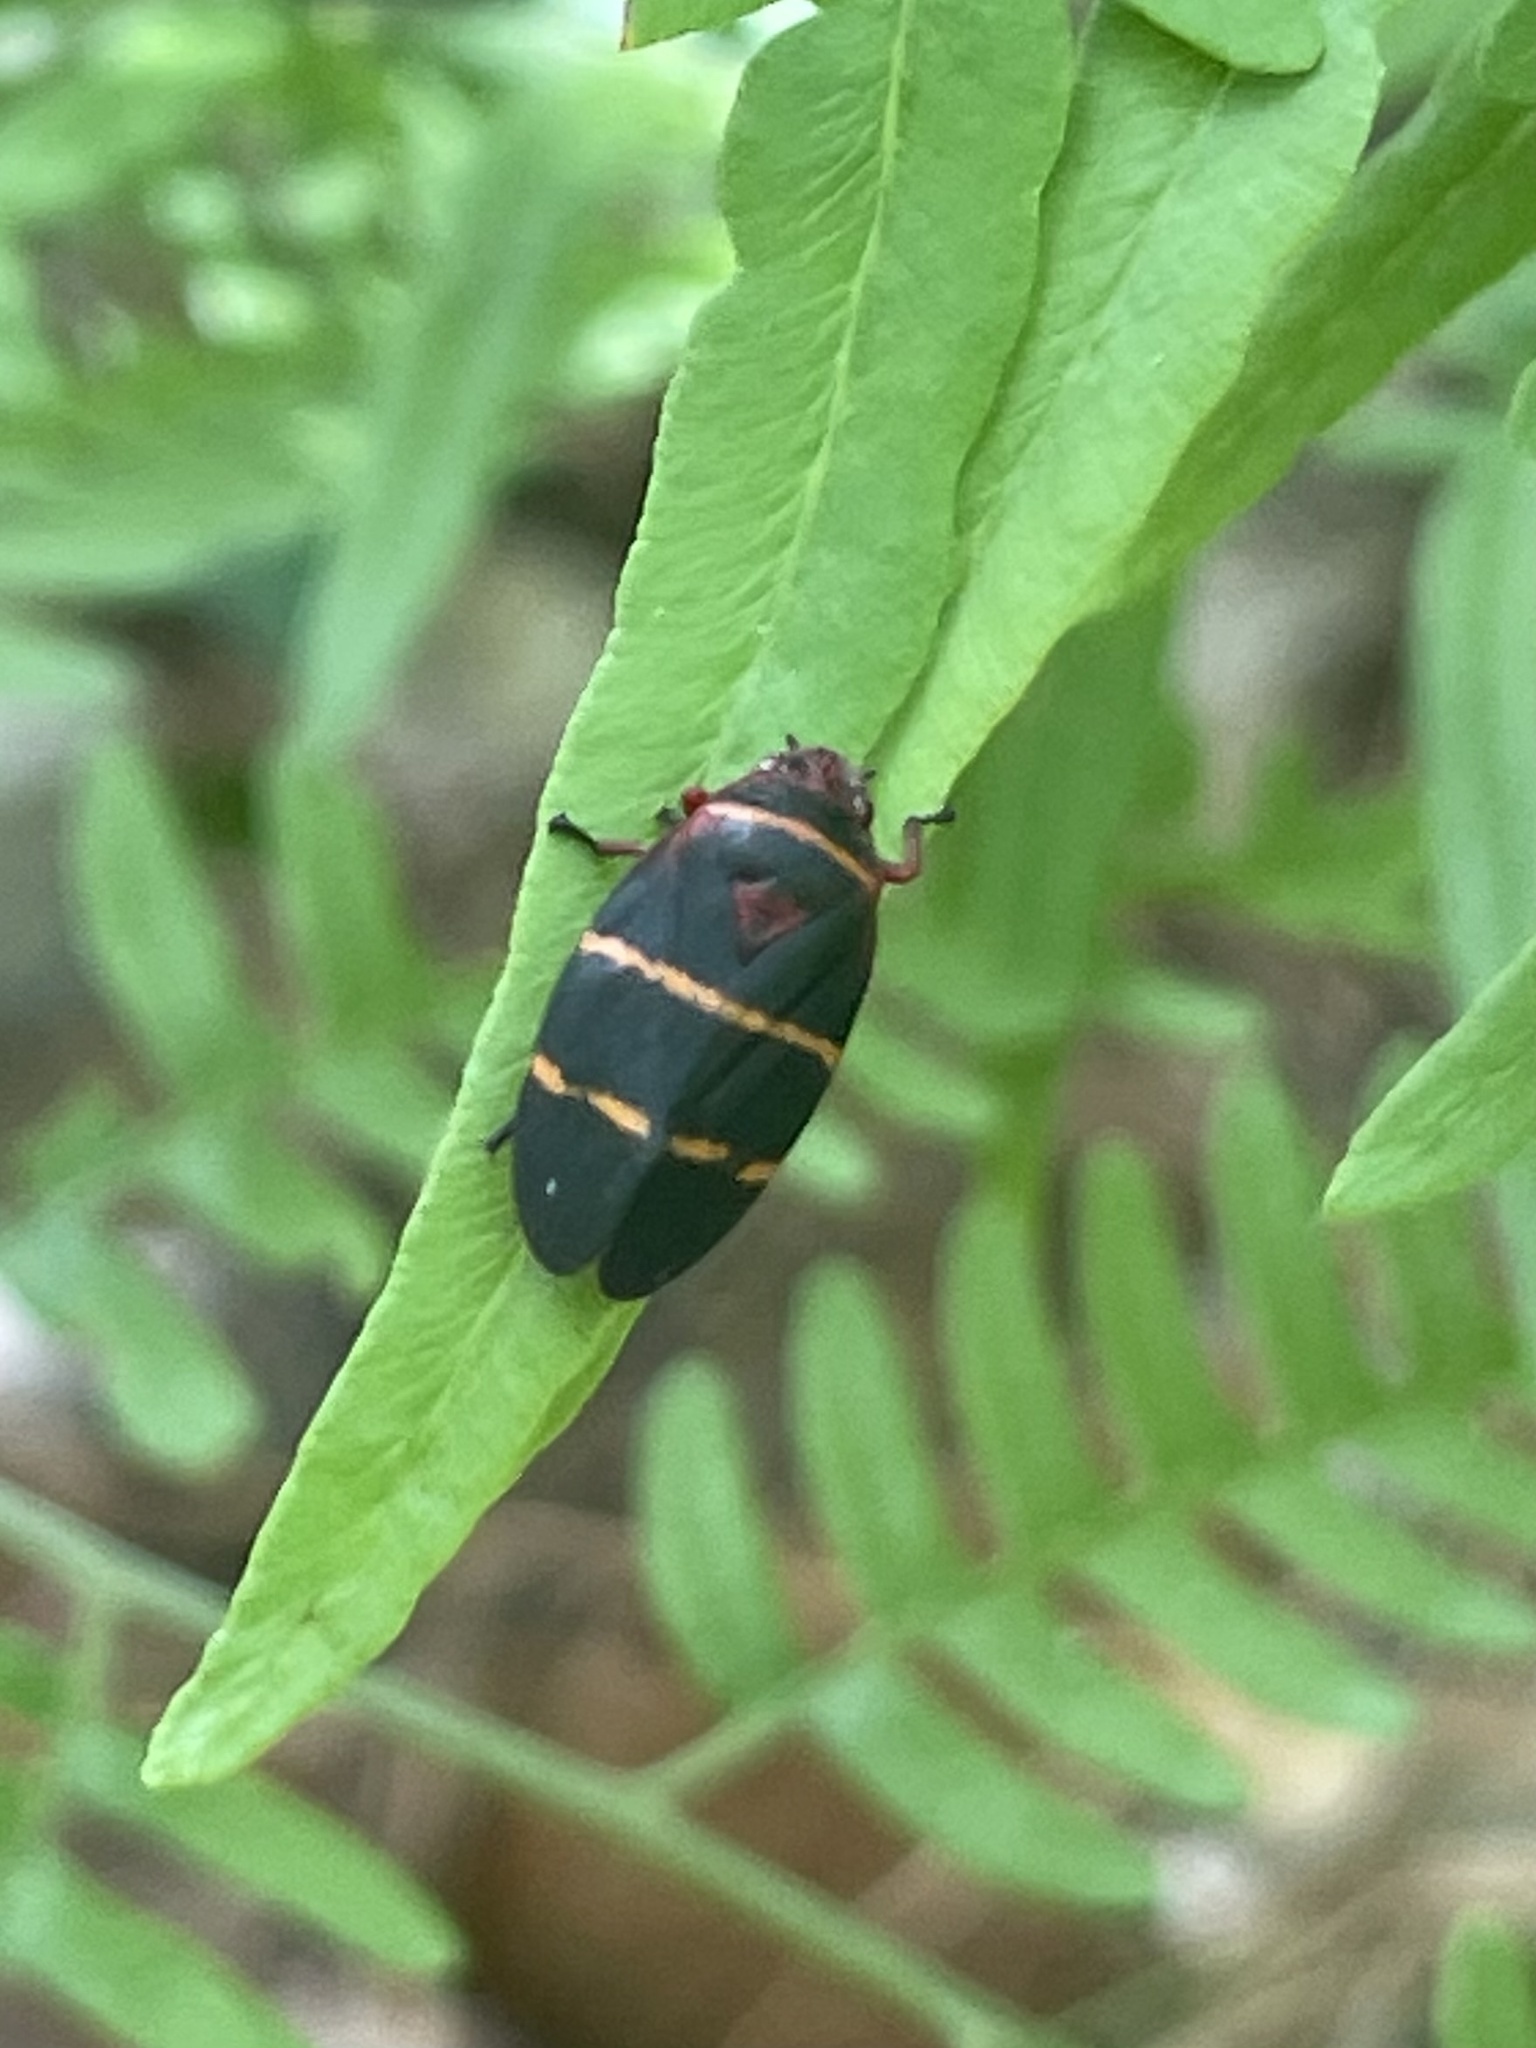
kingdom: Animalia
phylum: Arthropoda
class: Insecta
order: Hemiptera
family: Cercopidae
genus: Prosapia
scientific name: Prosapia bicincta
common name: Twolined spittlebug
